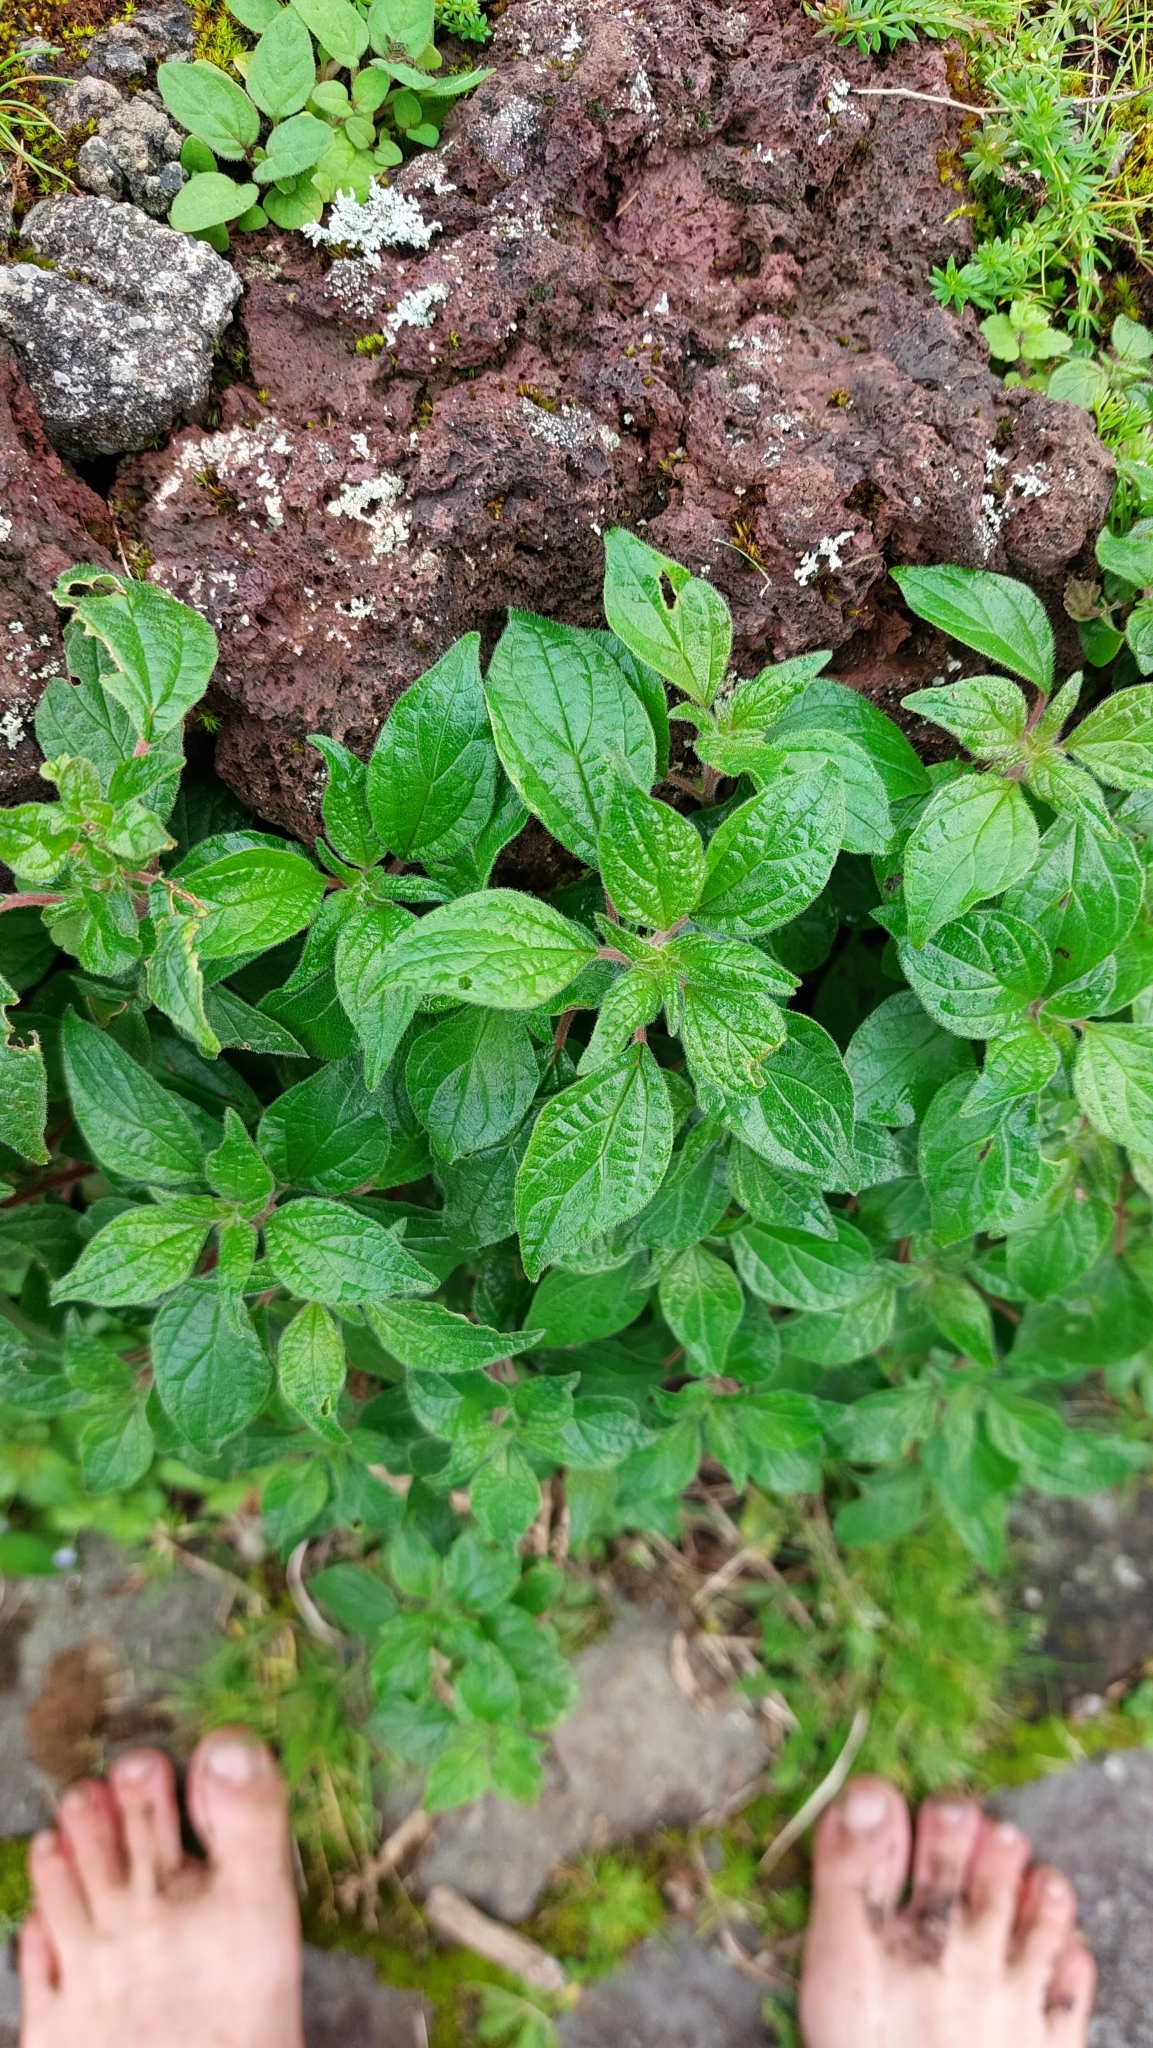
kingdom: Plantae
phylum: Tracheophyta
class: Magnoliopsida
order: Rosales
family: Urticaceae
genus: Parietaria
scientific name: Parietaria judaica
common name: Pellitory-of-the-wall
